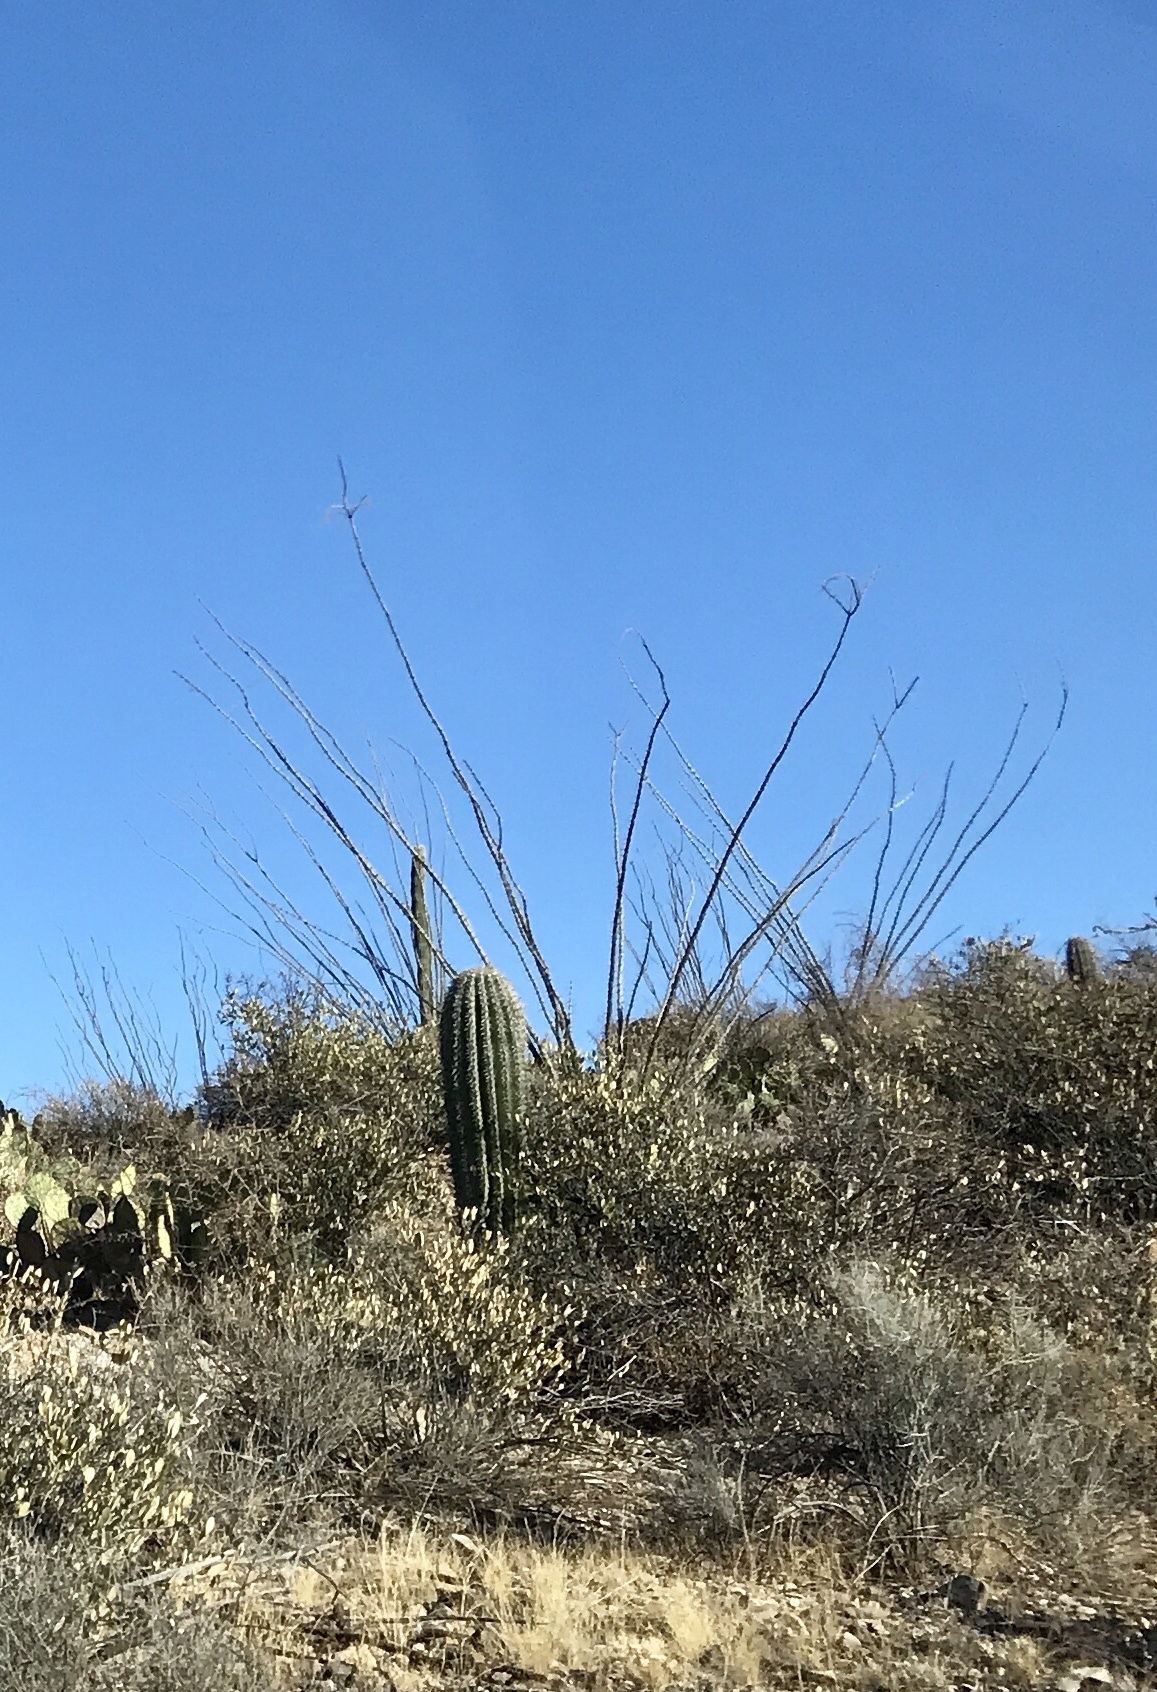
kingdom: Plantae
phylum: Tracheophyta
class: Magnoliopsida
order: Ericales
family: Fouquieriaceae
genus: Fouquieria
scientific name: Fouquieria splendens
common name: Vine-cactus
